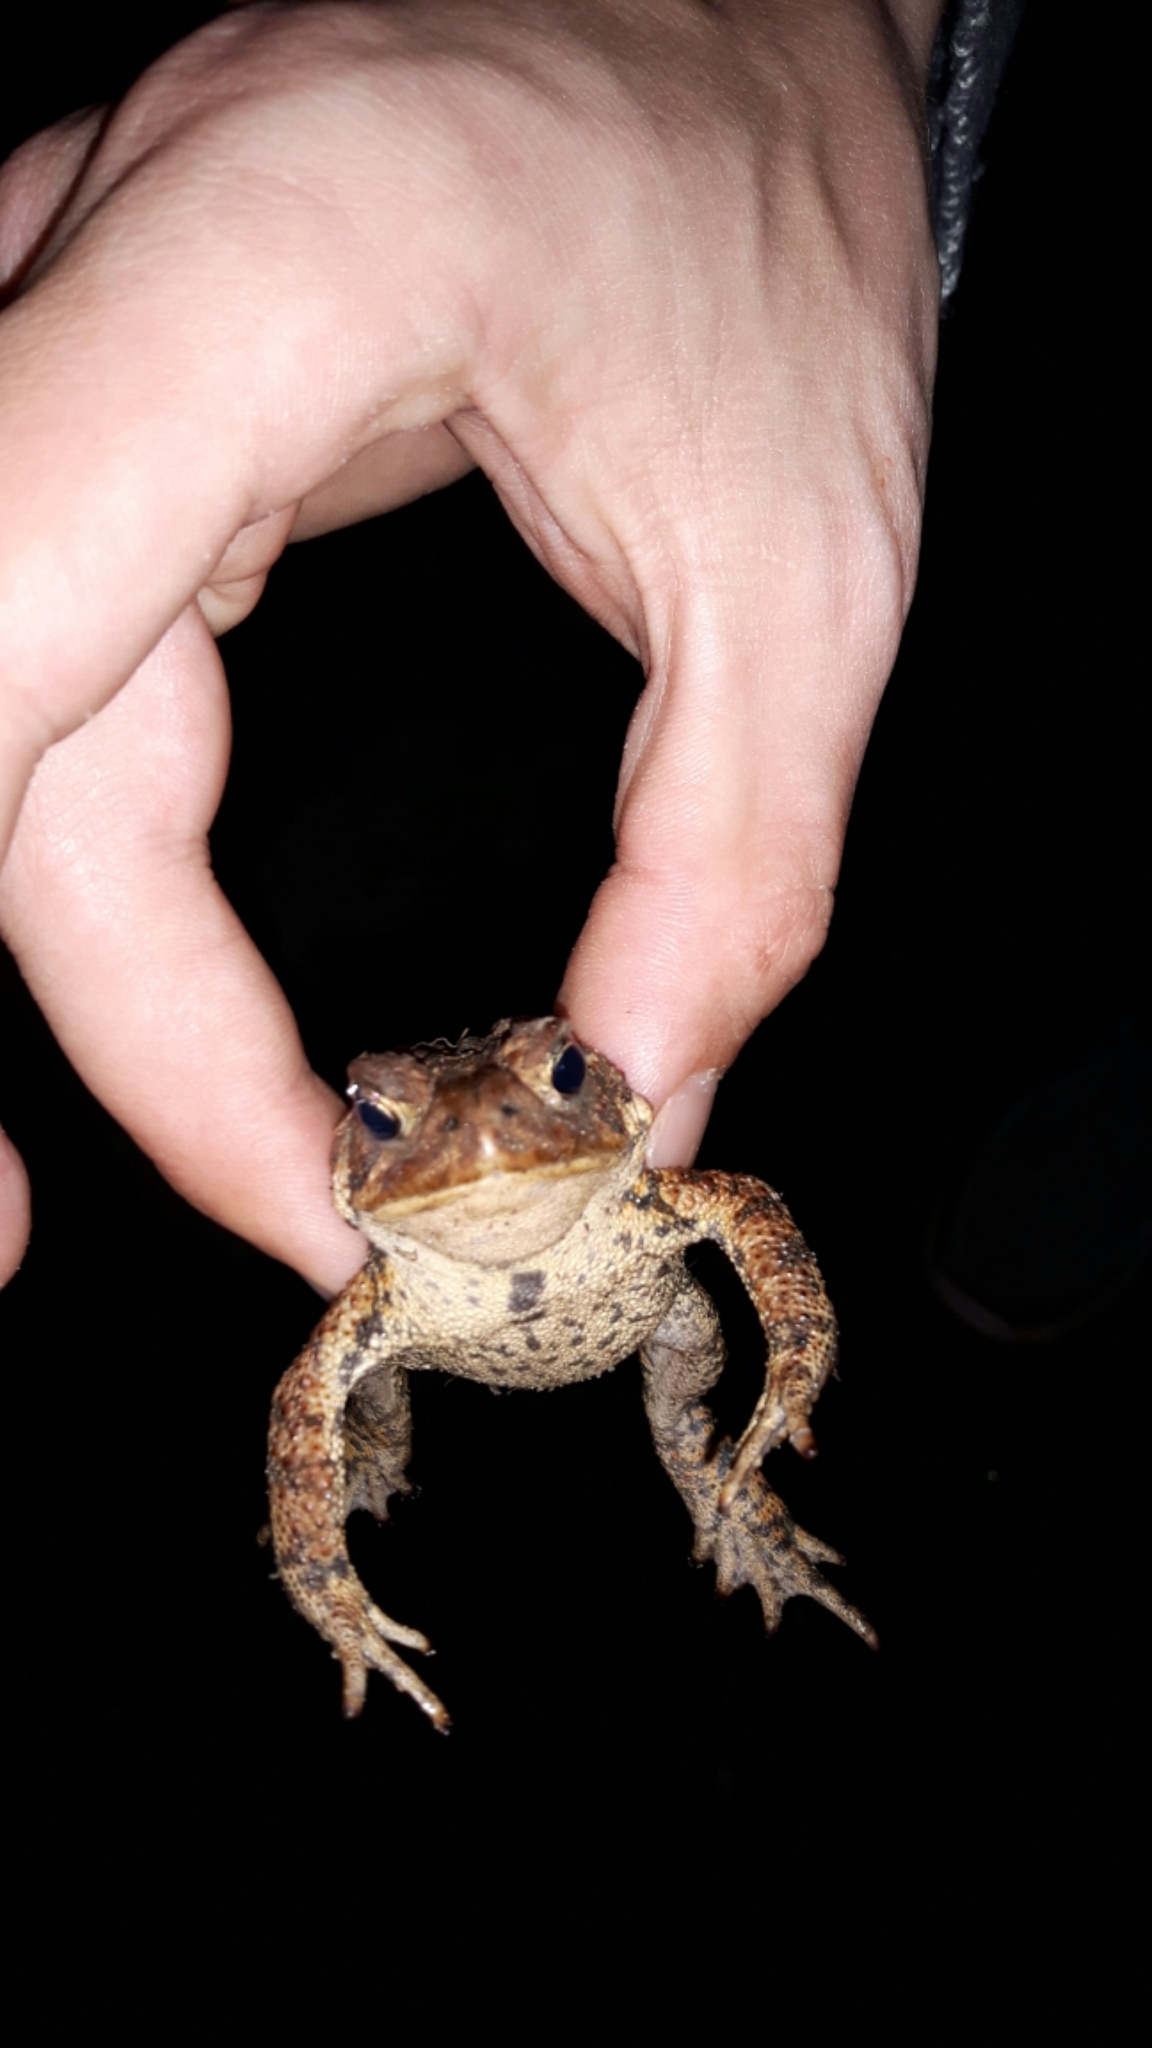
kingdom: Animalia
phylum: Chordata
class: Amphibia
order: Anura
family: Bufonidae
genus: Anaxyrus
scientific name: Anaxyrus americanus
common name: American toad
